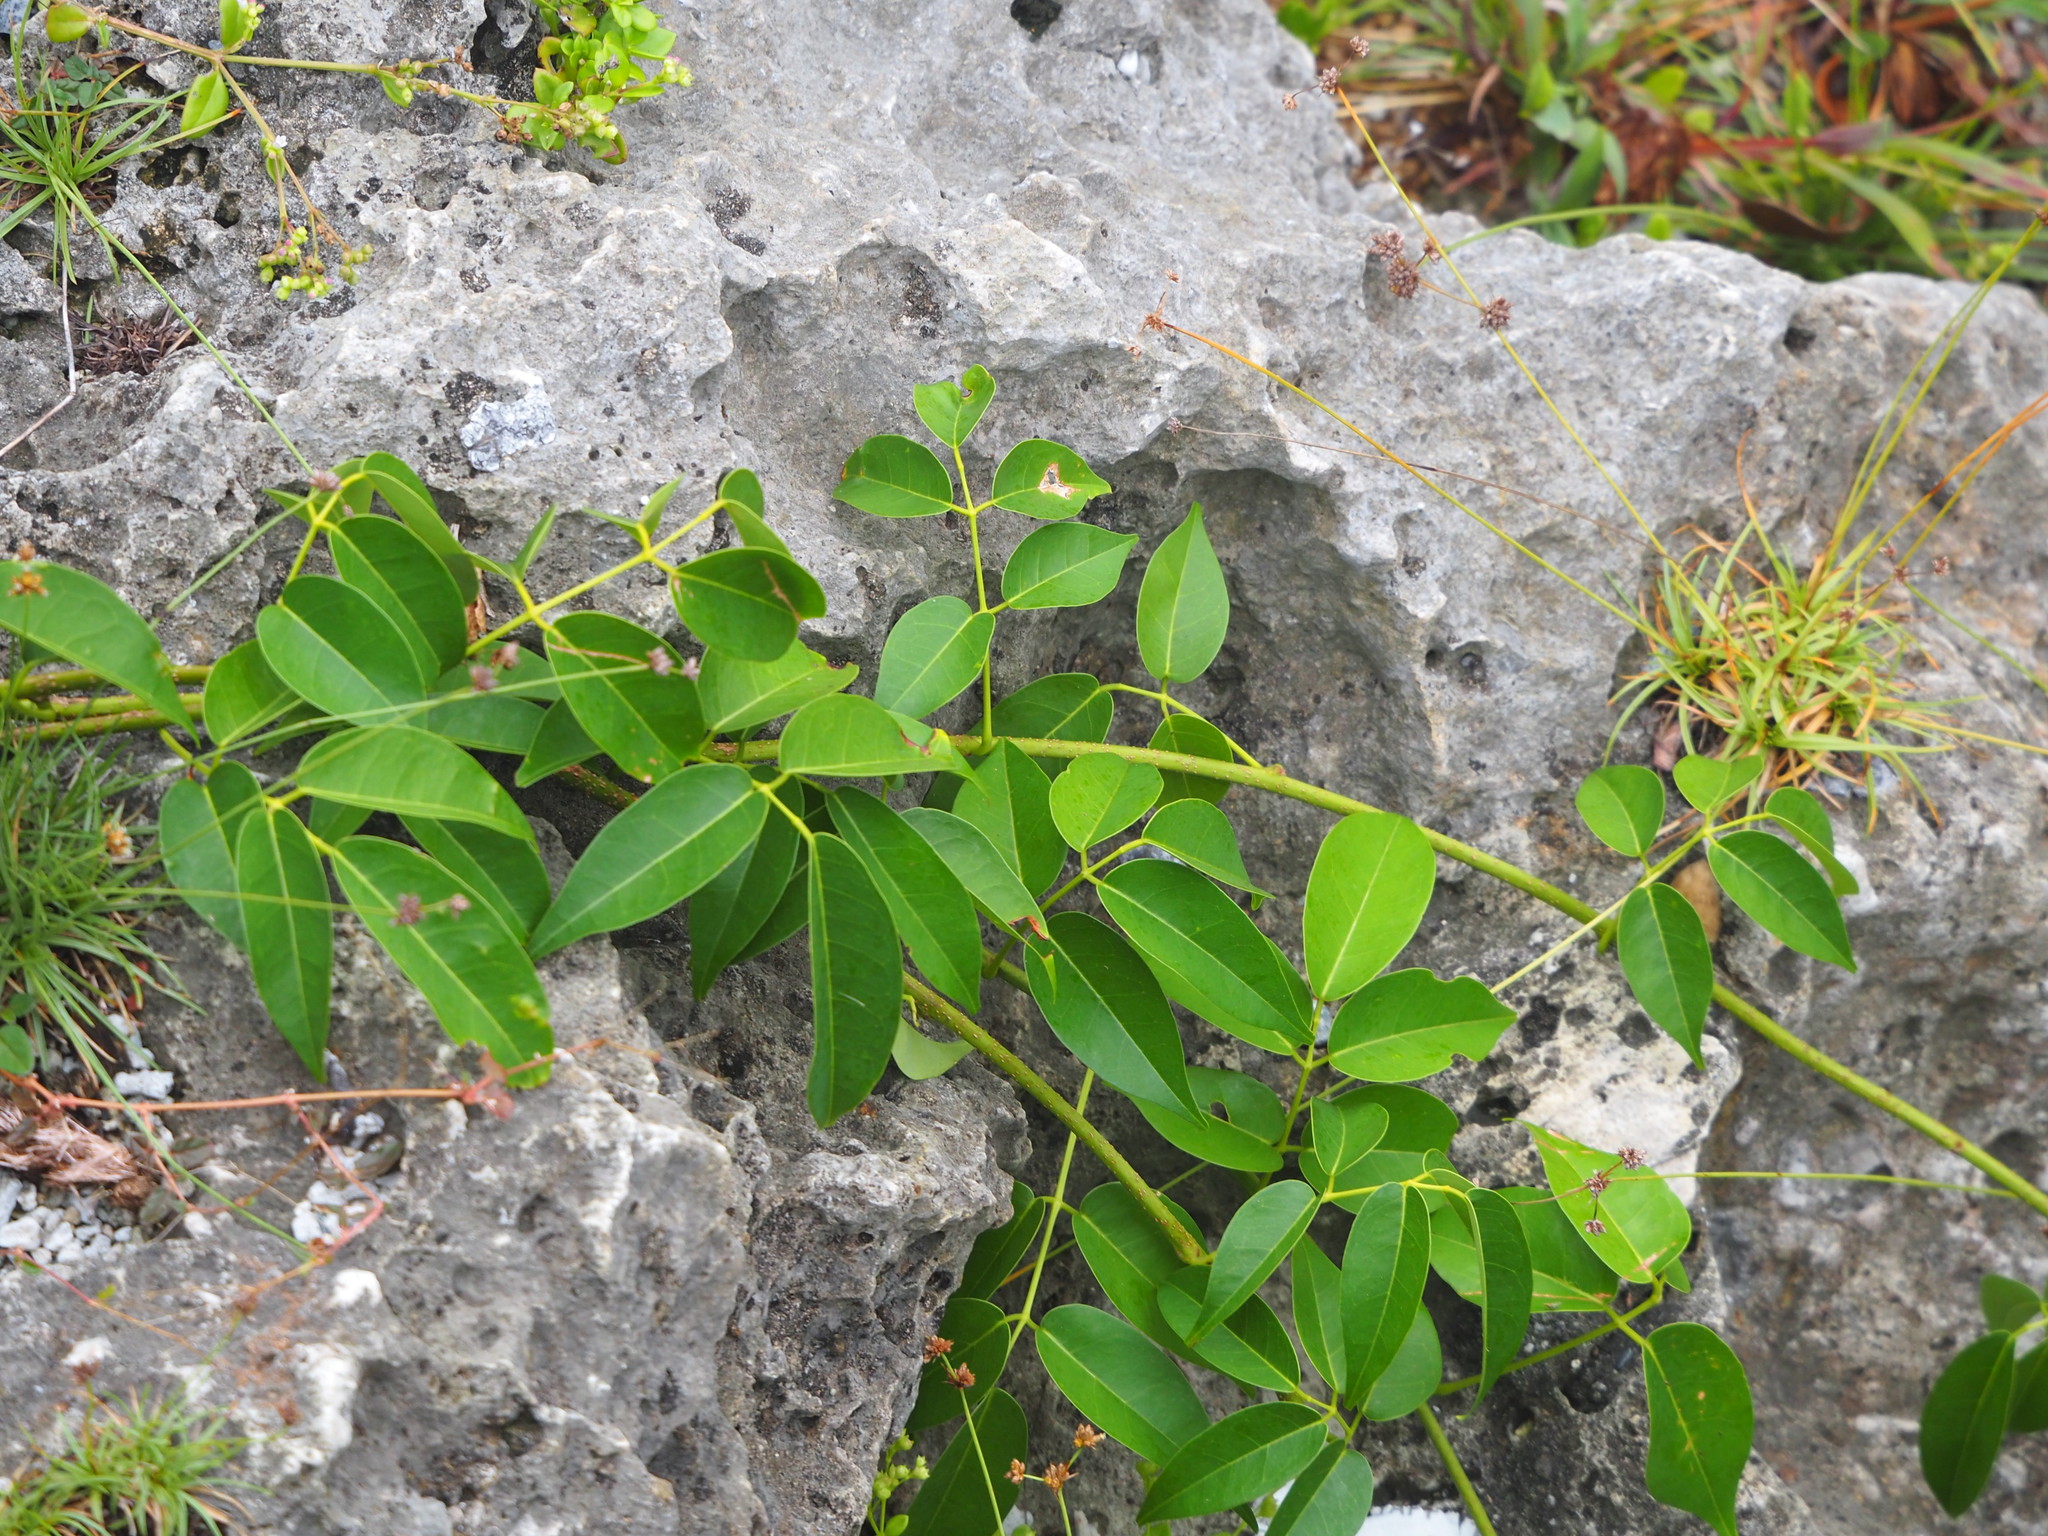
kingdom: Plantae
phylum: Tracheophyta
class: Magnoliopsida
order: Fabales
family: Fabaceae
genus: Derris
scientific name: Derris trifoliata
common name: Three-leaf derris
